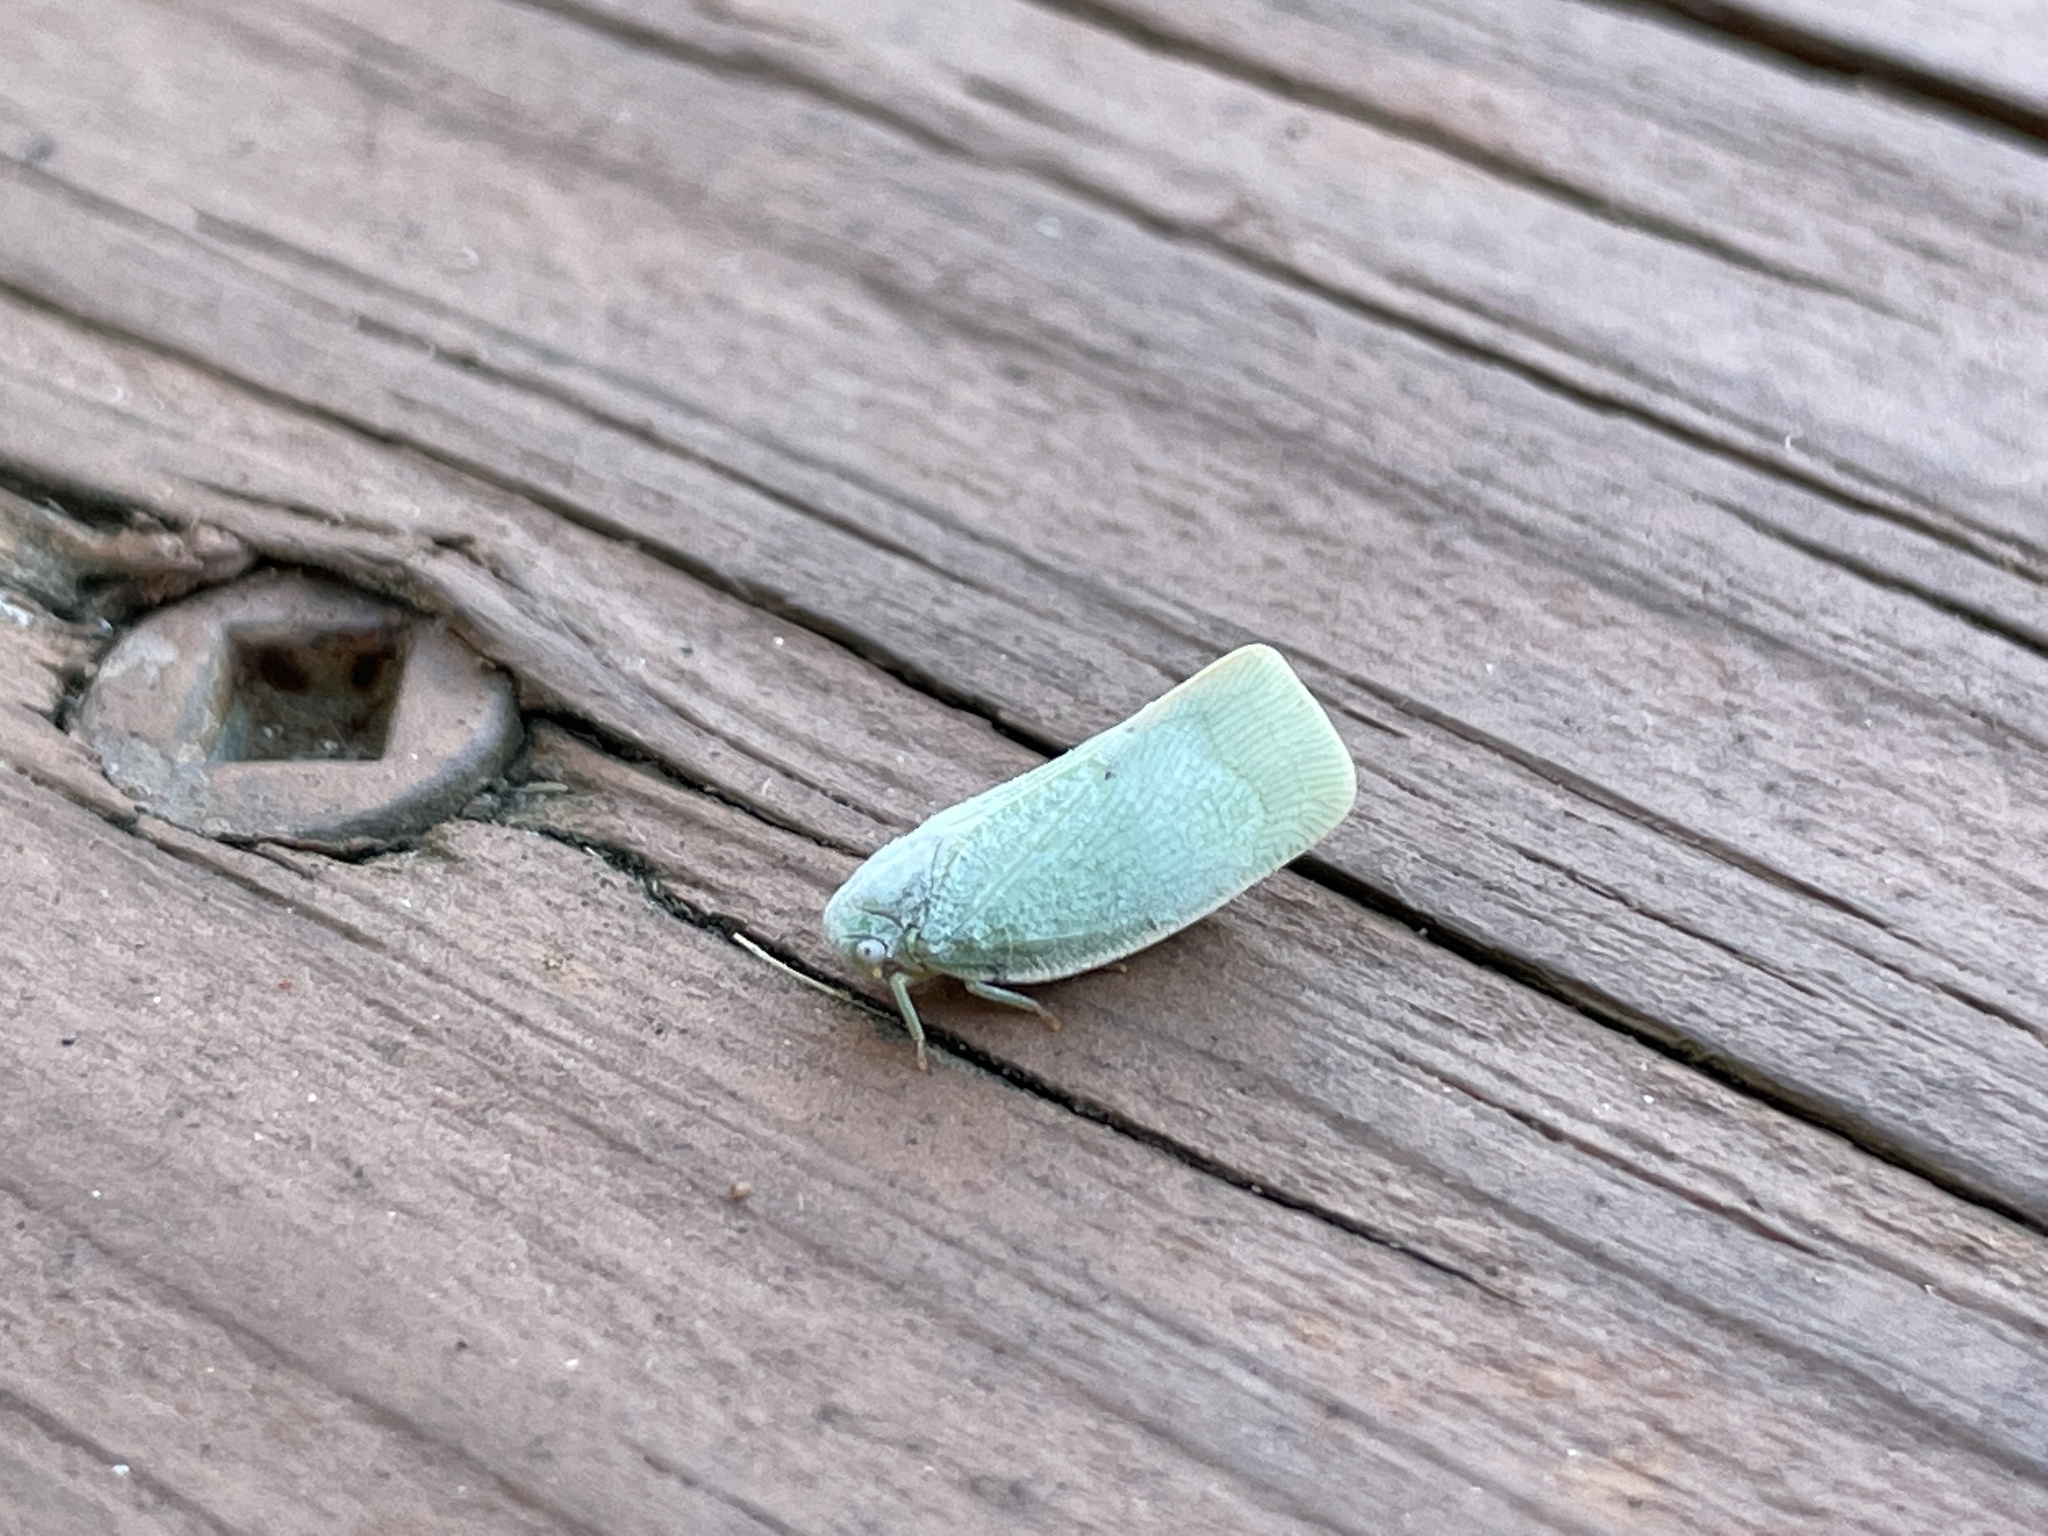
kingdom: Animalia
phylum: Arthropoda
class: Insecta
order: Hemiptera
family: Flatidae
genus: Flatormenis
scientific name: Flatormenis proxima
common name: Northern flatid planthopper
